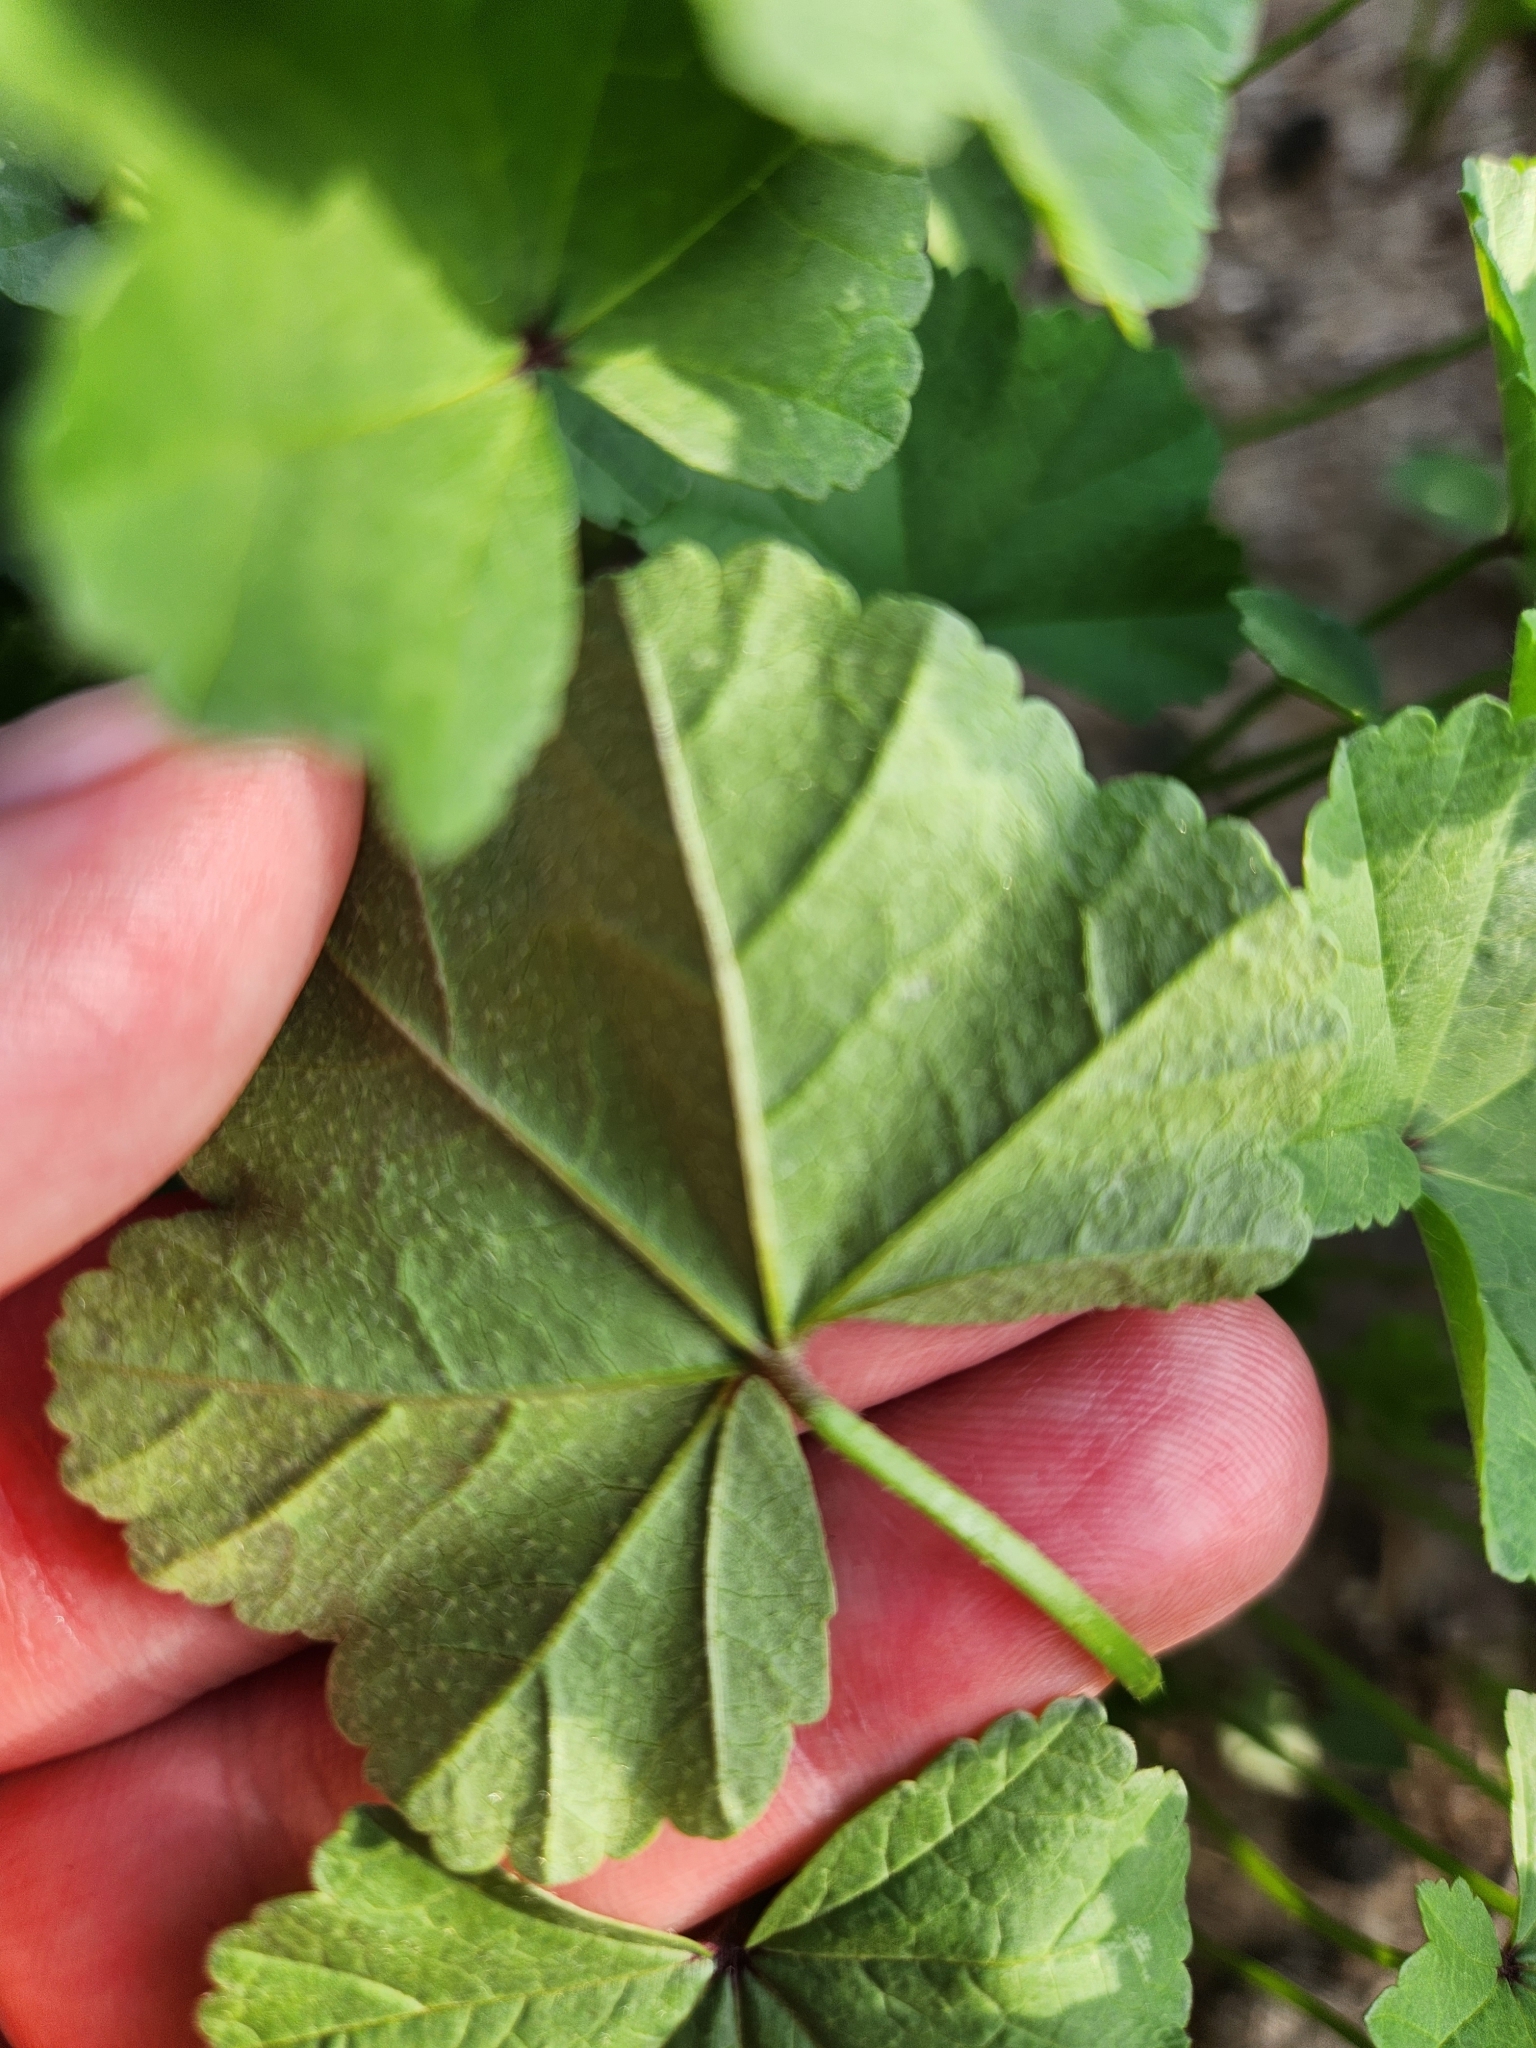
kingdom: Plantae
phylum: Tracheophyta
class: Magnoliopsida
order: Malvales
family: Malvaceae
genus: Malva
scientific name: Malva
